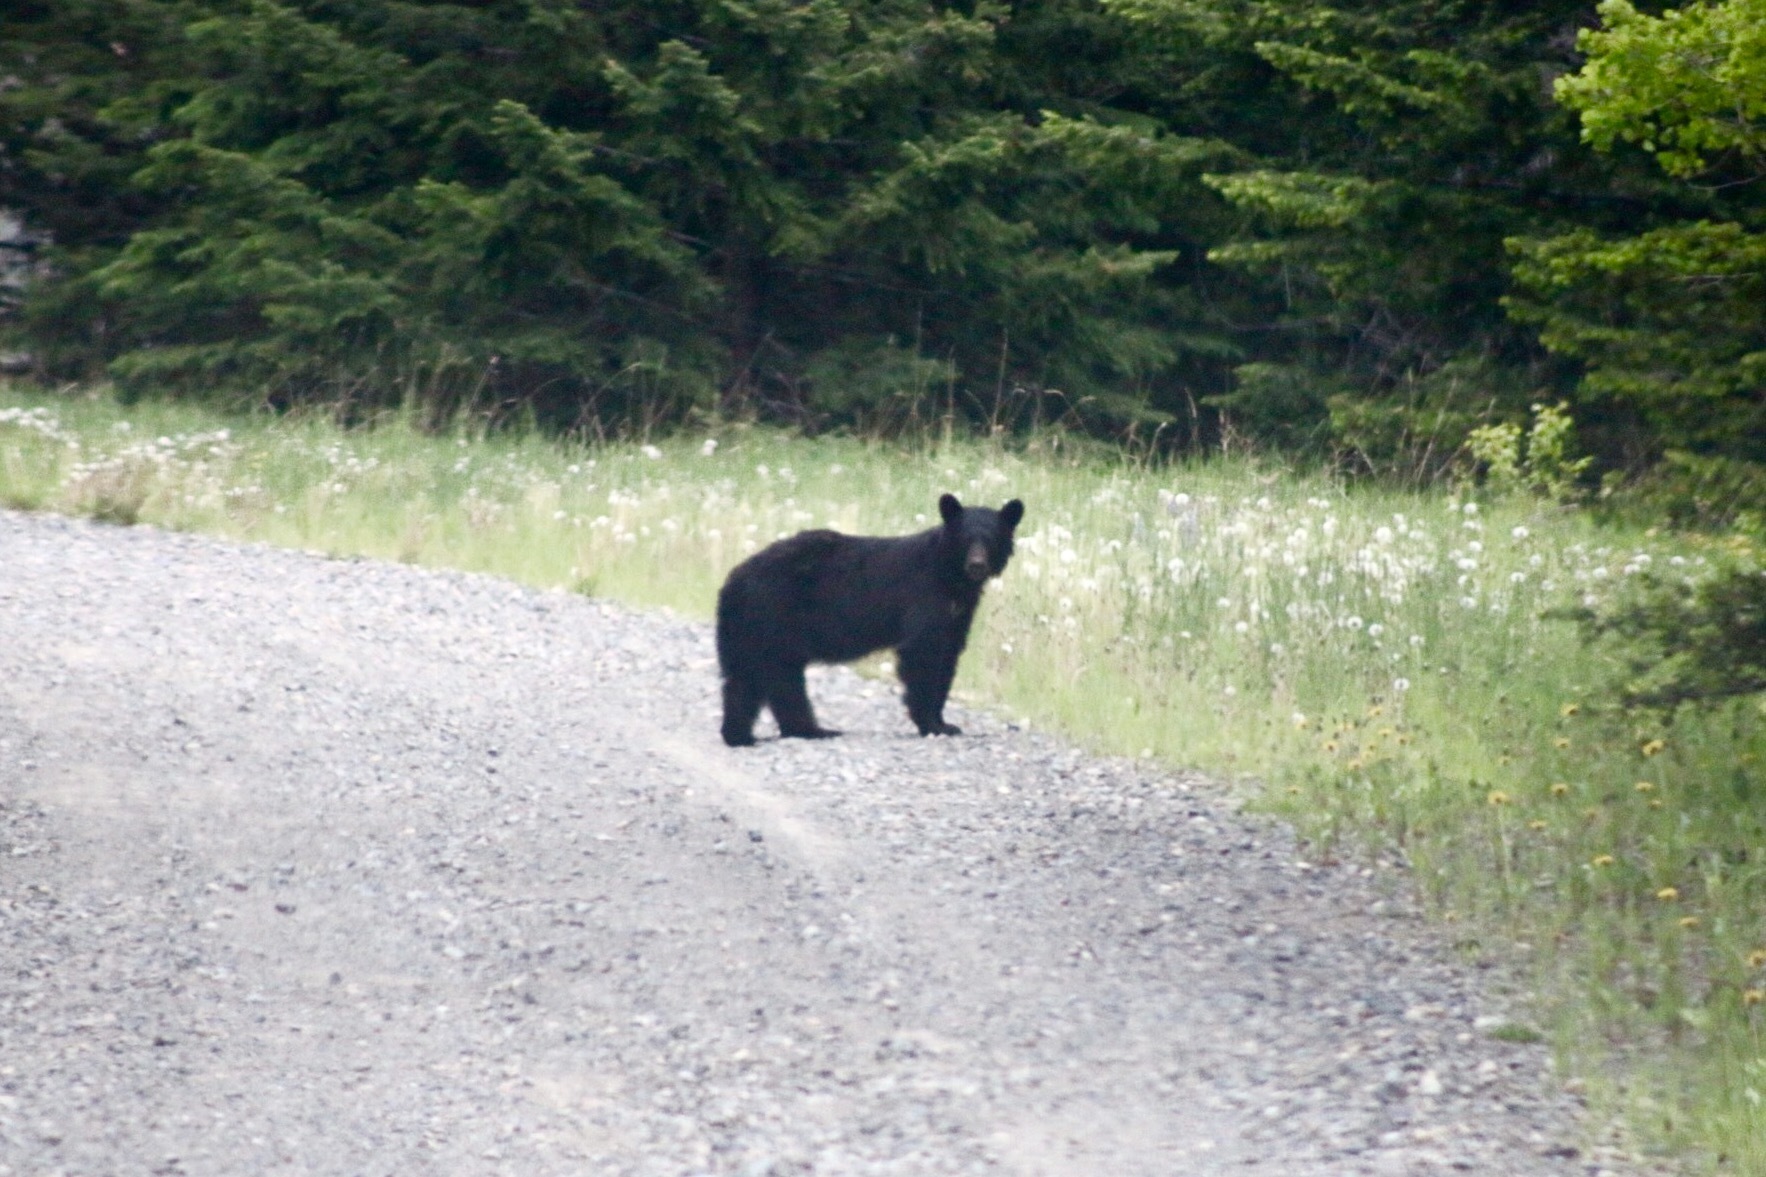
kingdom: Animalia
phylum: Chordata
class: Mammalia
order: Carnivora
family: Ursidae
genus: Ursus
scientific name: Ursus americanus
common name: American black bear
